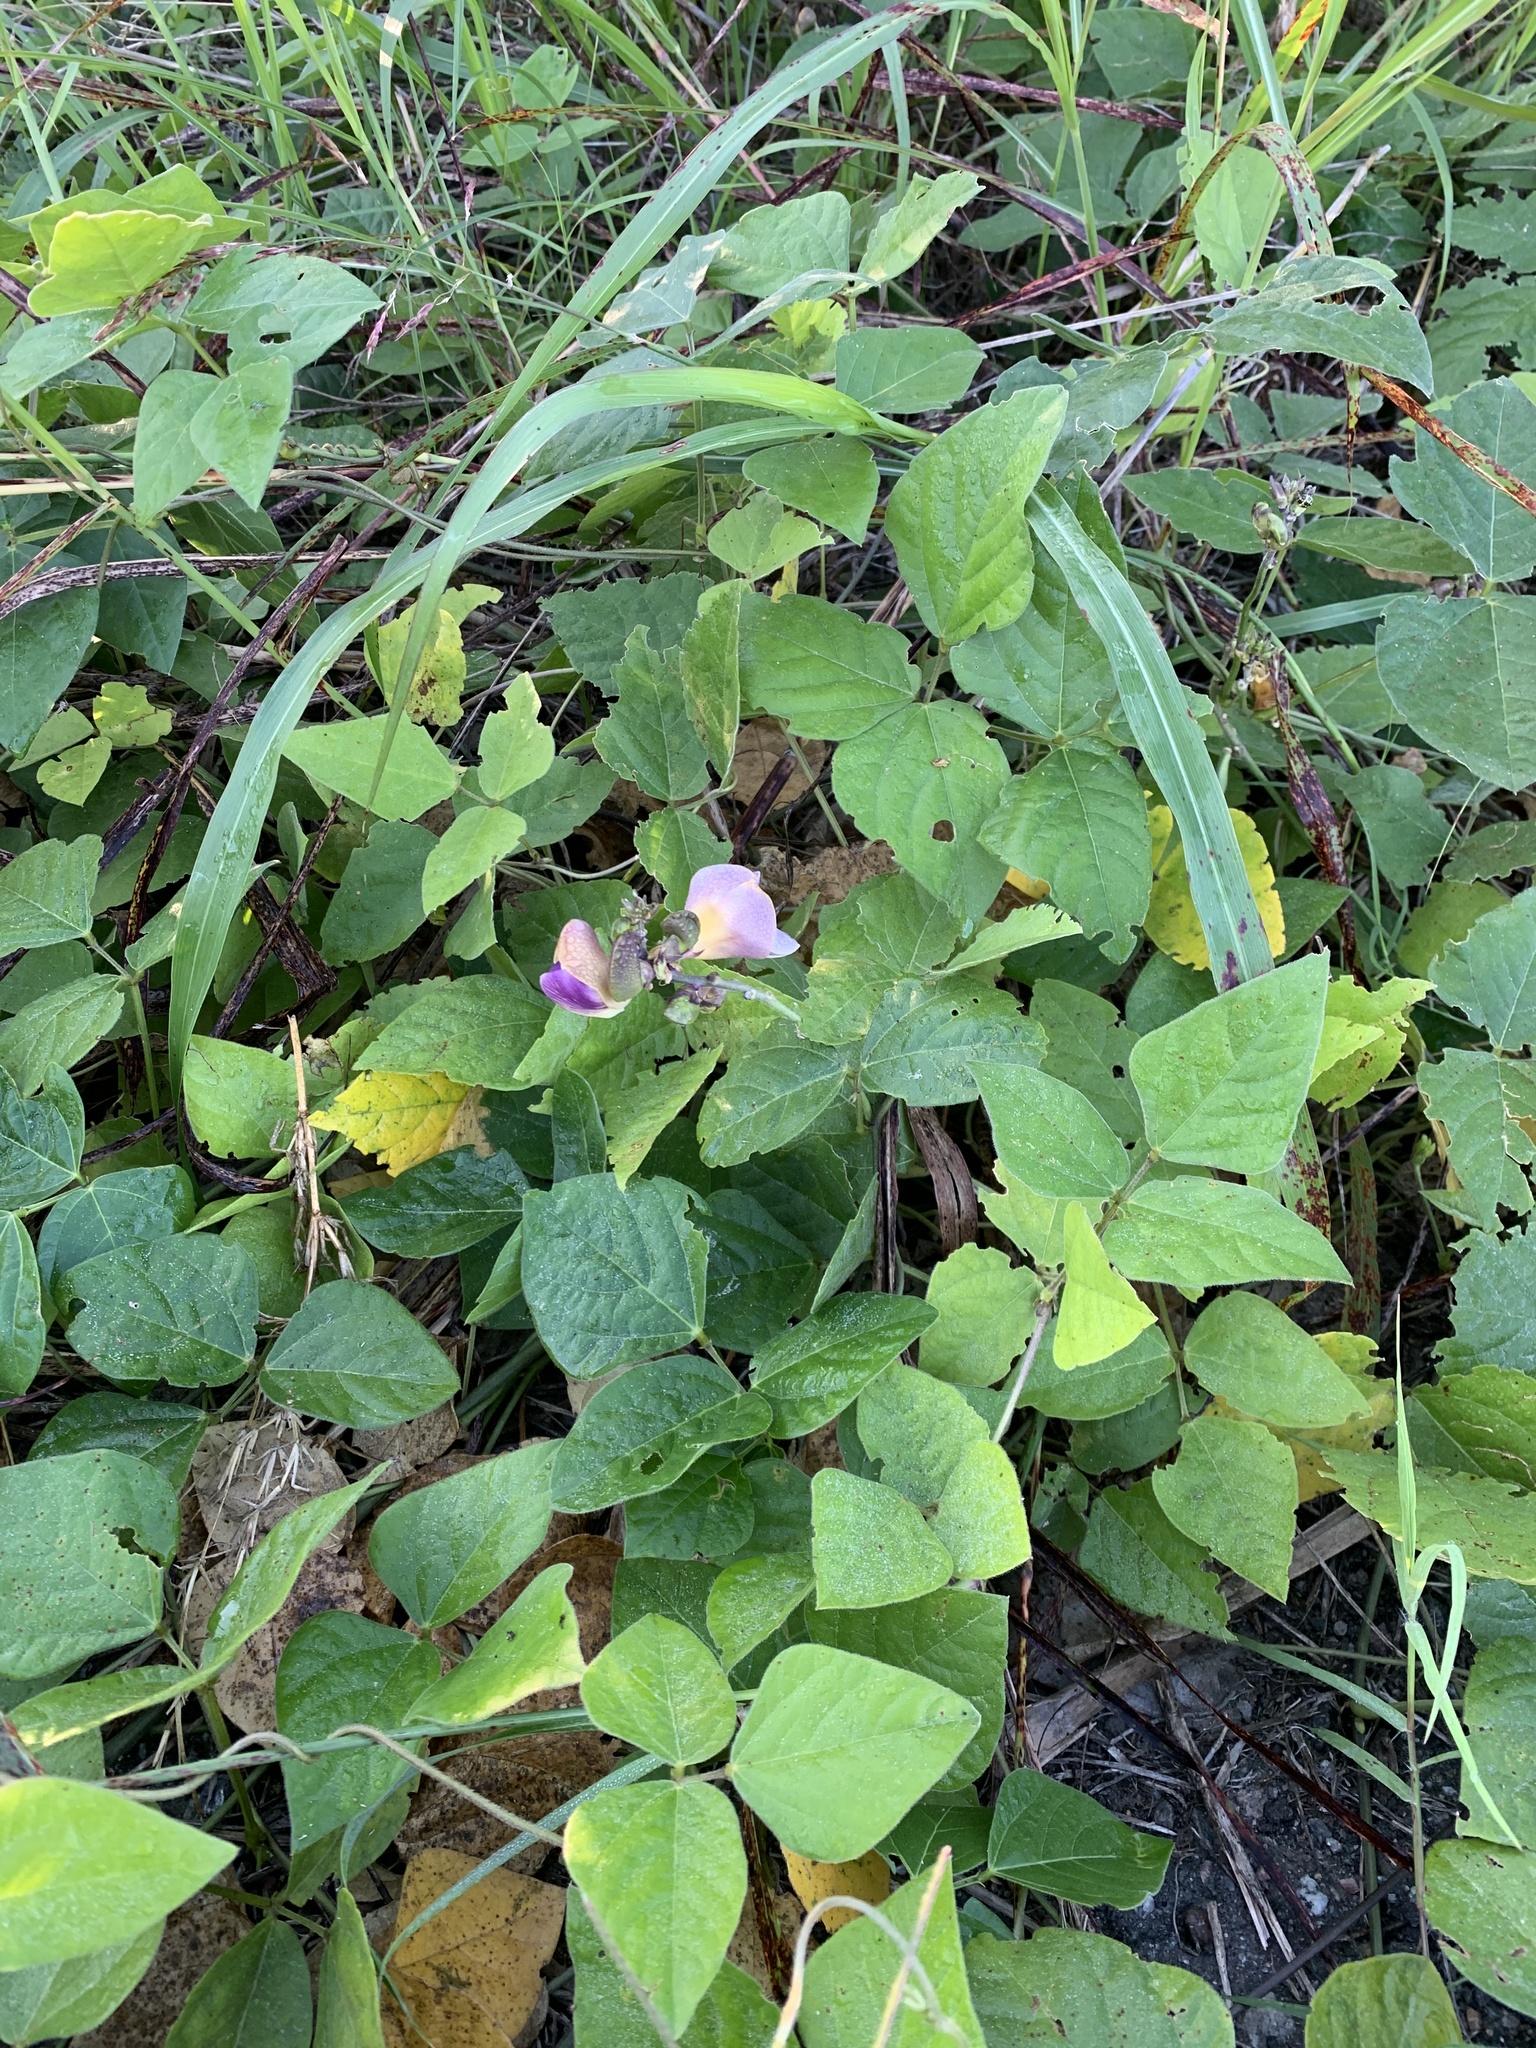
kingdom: Plantae
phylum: Tracheophyta
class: Magnoliopsida
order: Fabales
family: Fabaceae
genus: Leptospron
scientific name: Leptospron adenanthum
